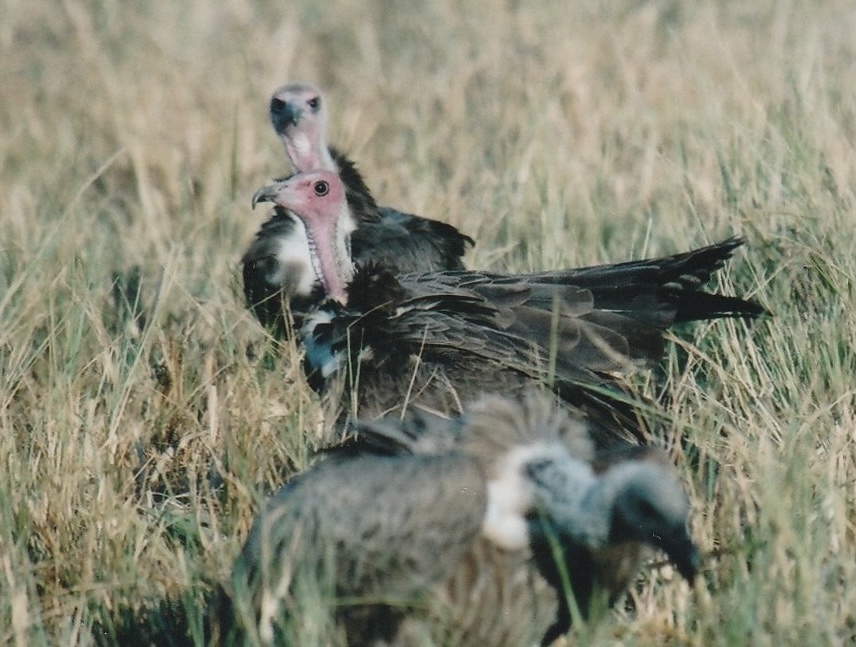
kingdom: Animalia
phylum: Chordata
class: Aves
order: Accipitriformes
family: Accipitridae
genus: Necrosyrtes
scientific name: Necrosyrtes monachus
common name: Hooded vulture
